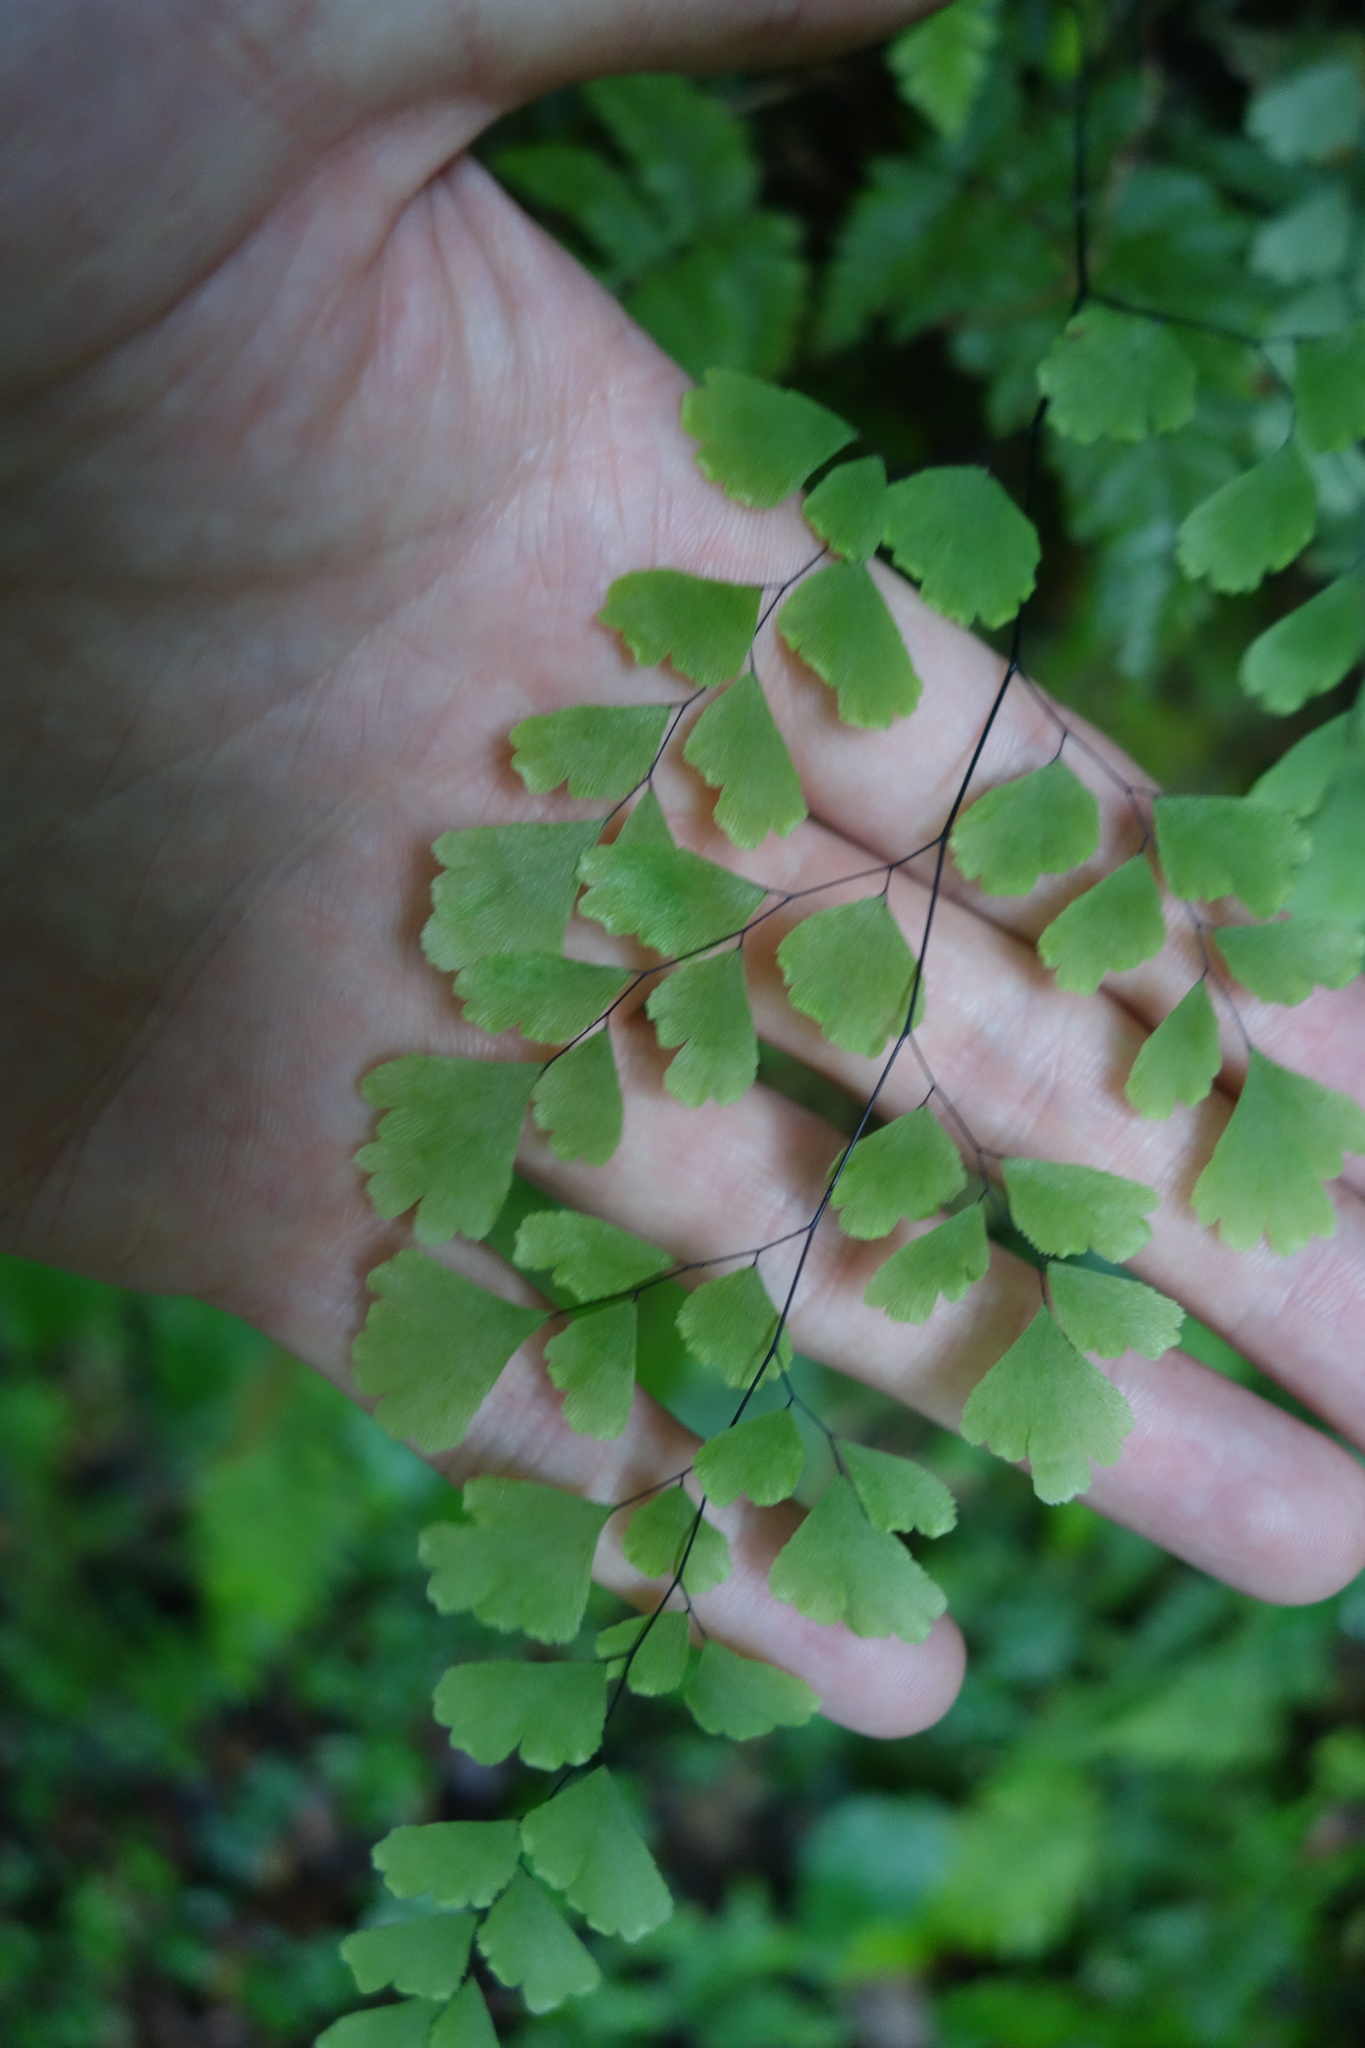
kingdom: Plantae
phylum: Tracheophyta
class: Polypodiopsida
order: Polypodiales
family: Pteridaceae
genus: Adiantum
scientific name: Adiantum capillus-veneris
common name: Maidenhair fern
